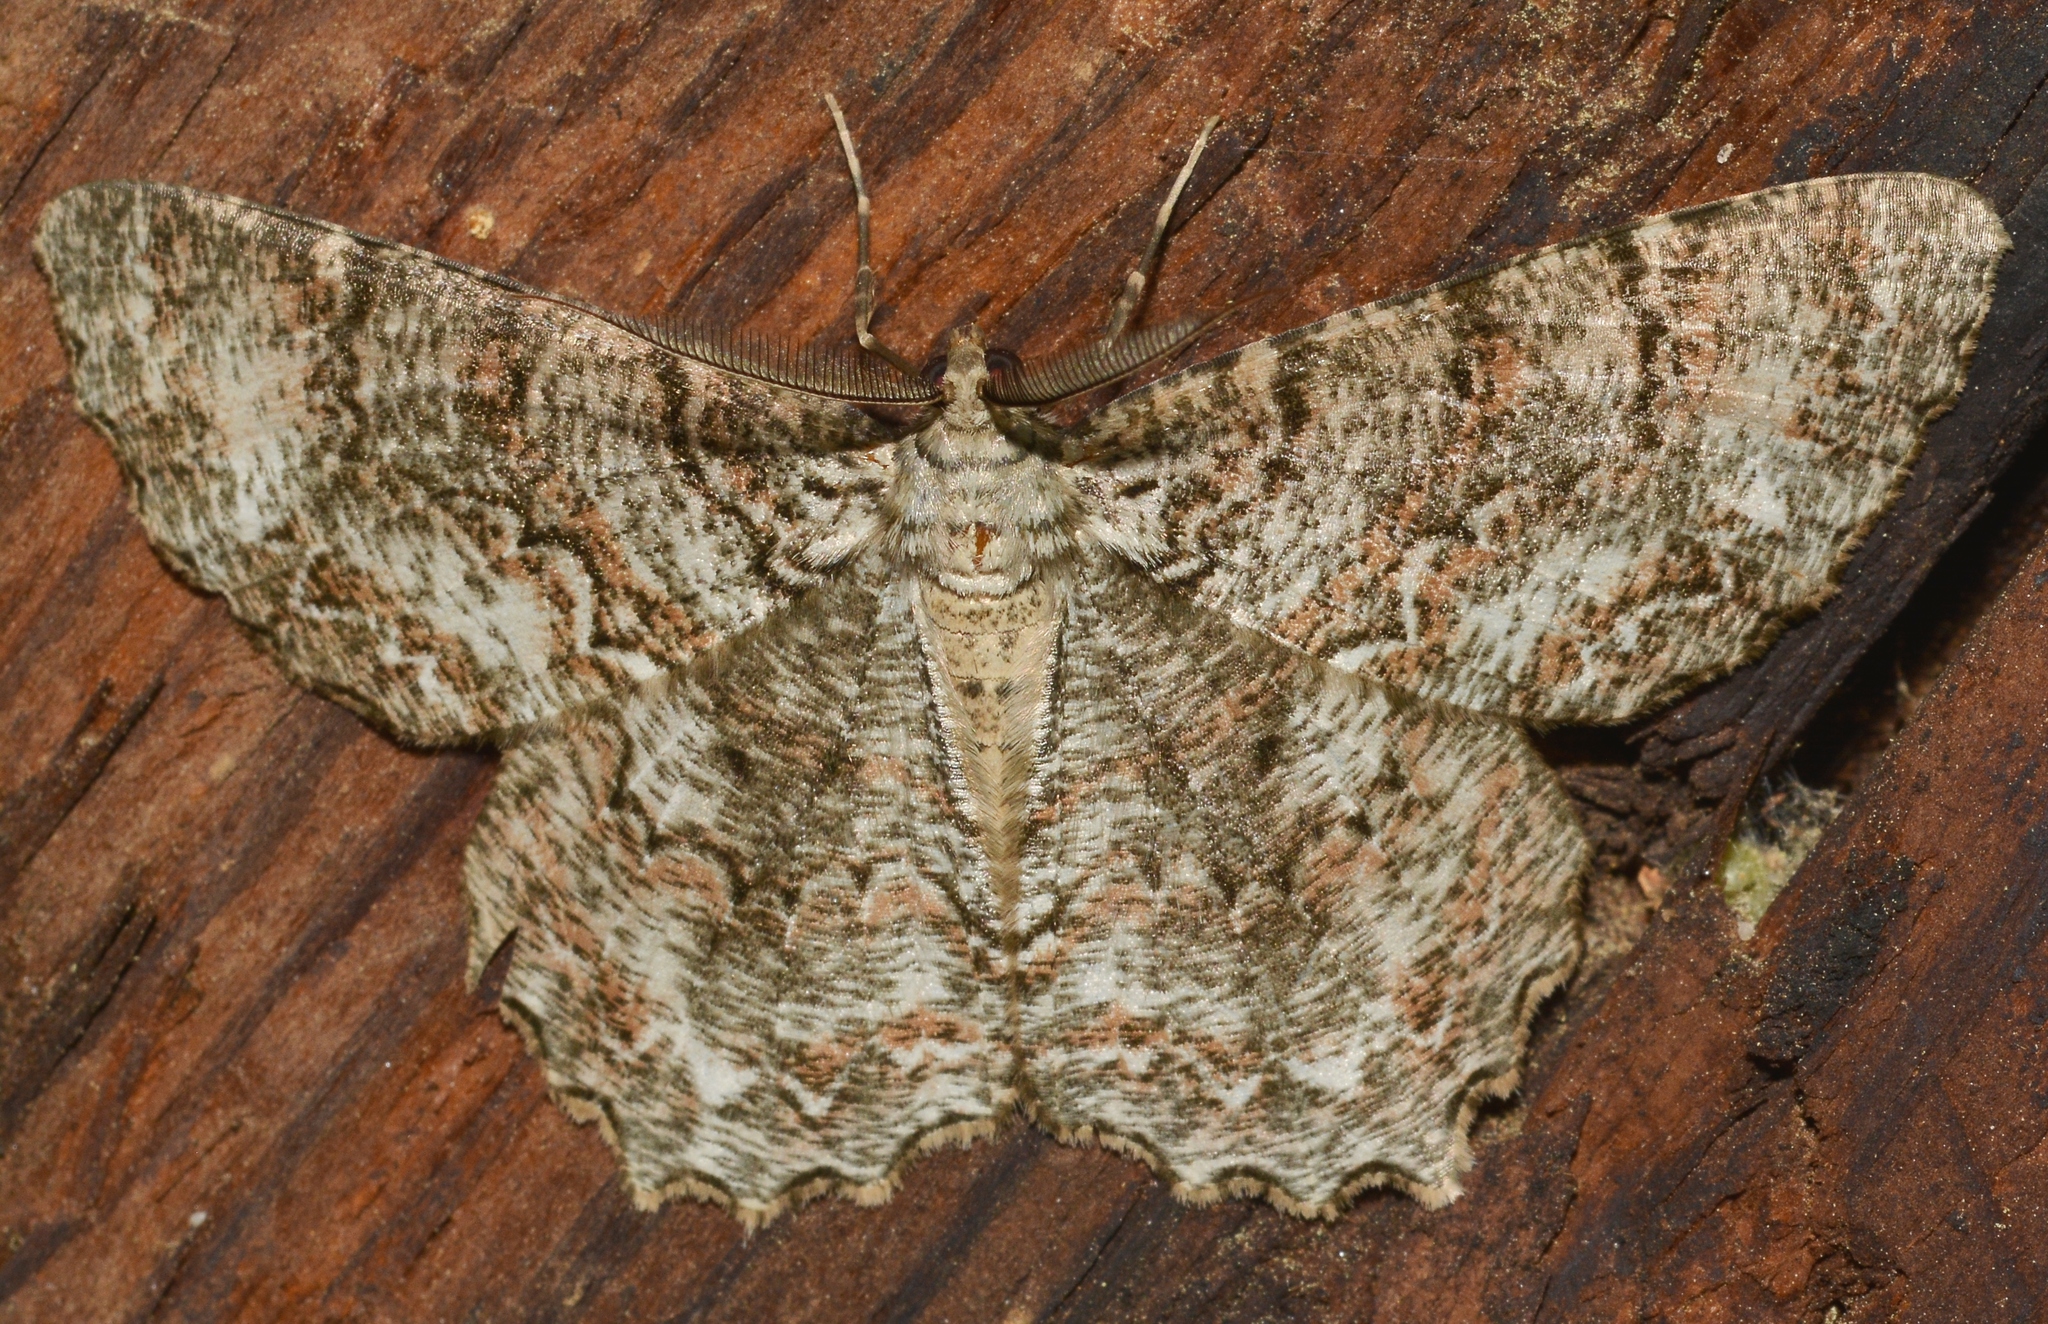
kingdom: Animalia
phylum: Arthropoda
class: Insecta
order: Lepidoptera
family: Geometridae
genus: Epimecis
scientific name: Epimecis hortaria
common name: Tulip-tree beauty
